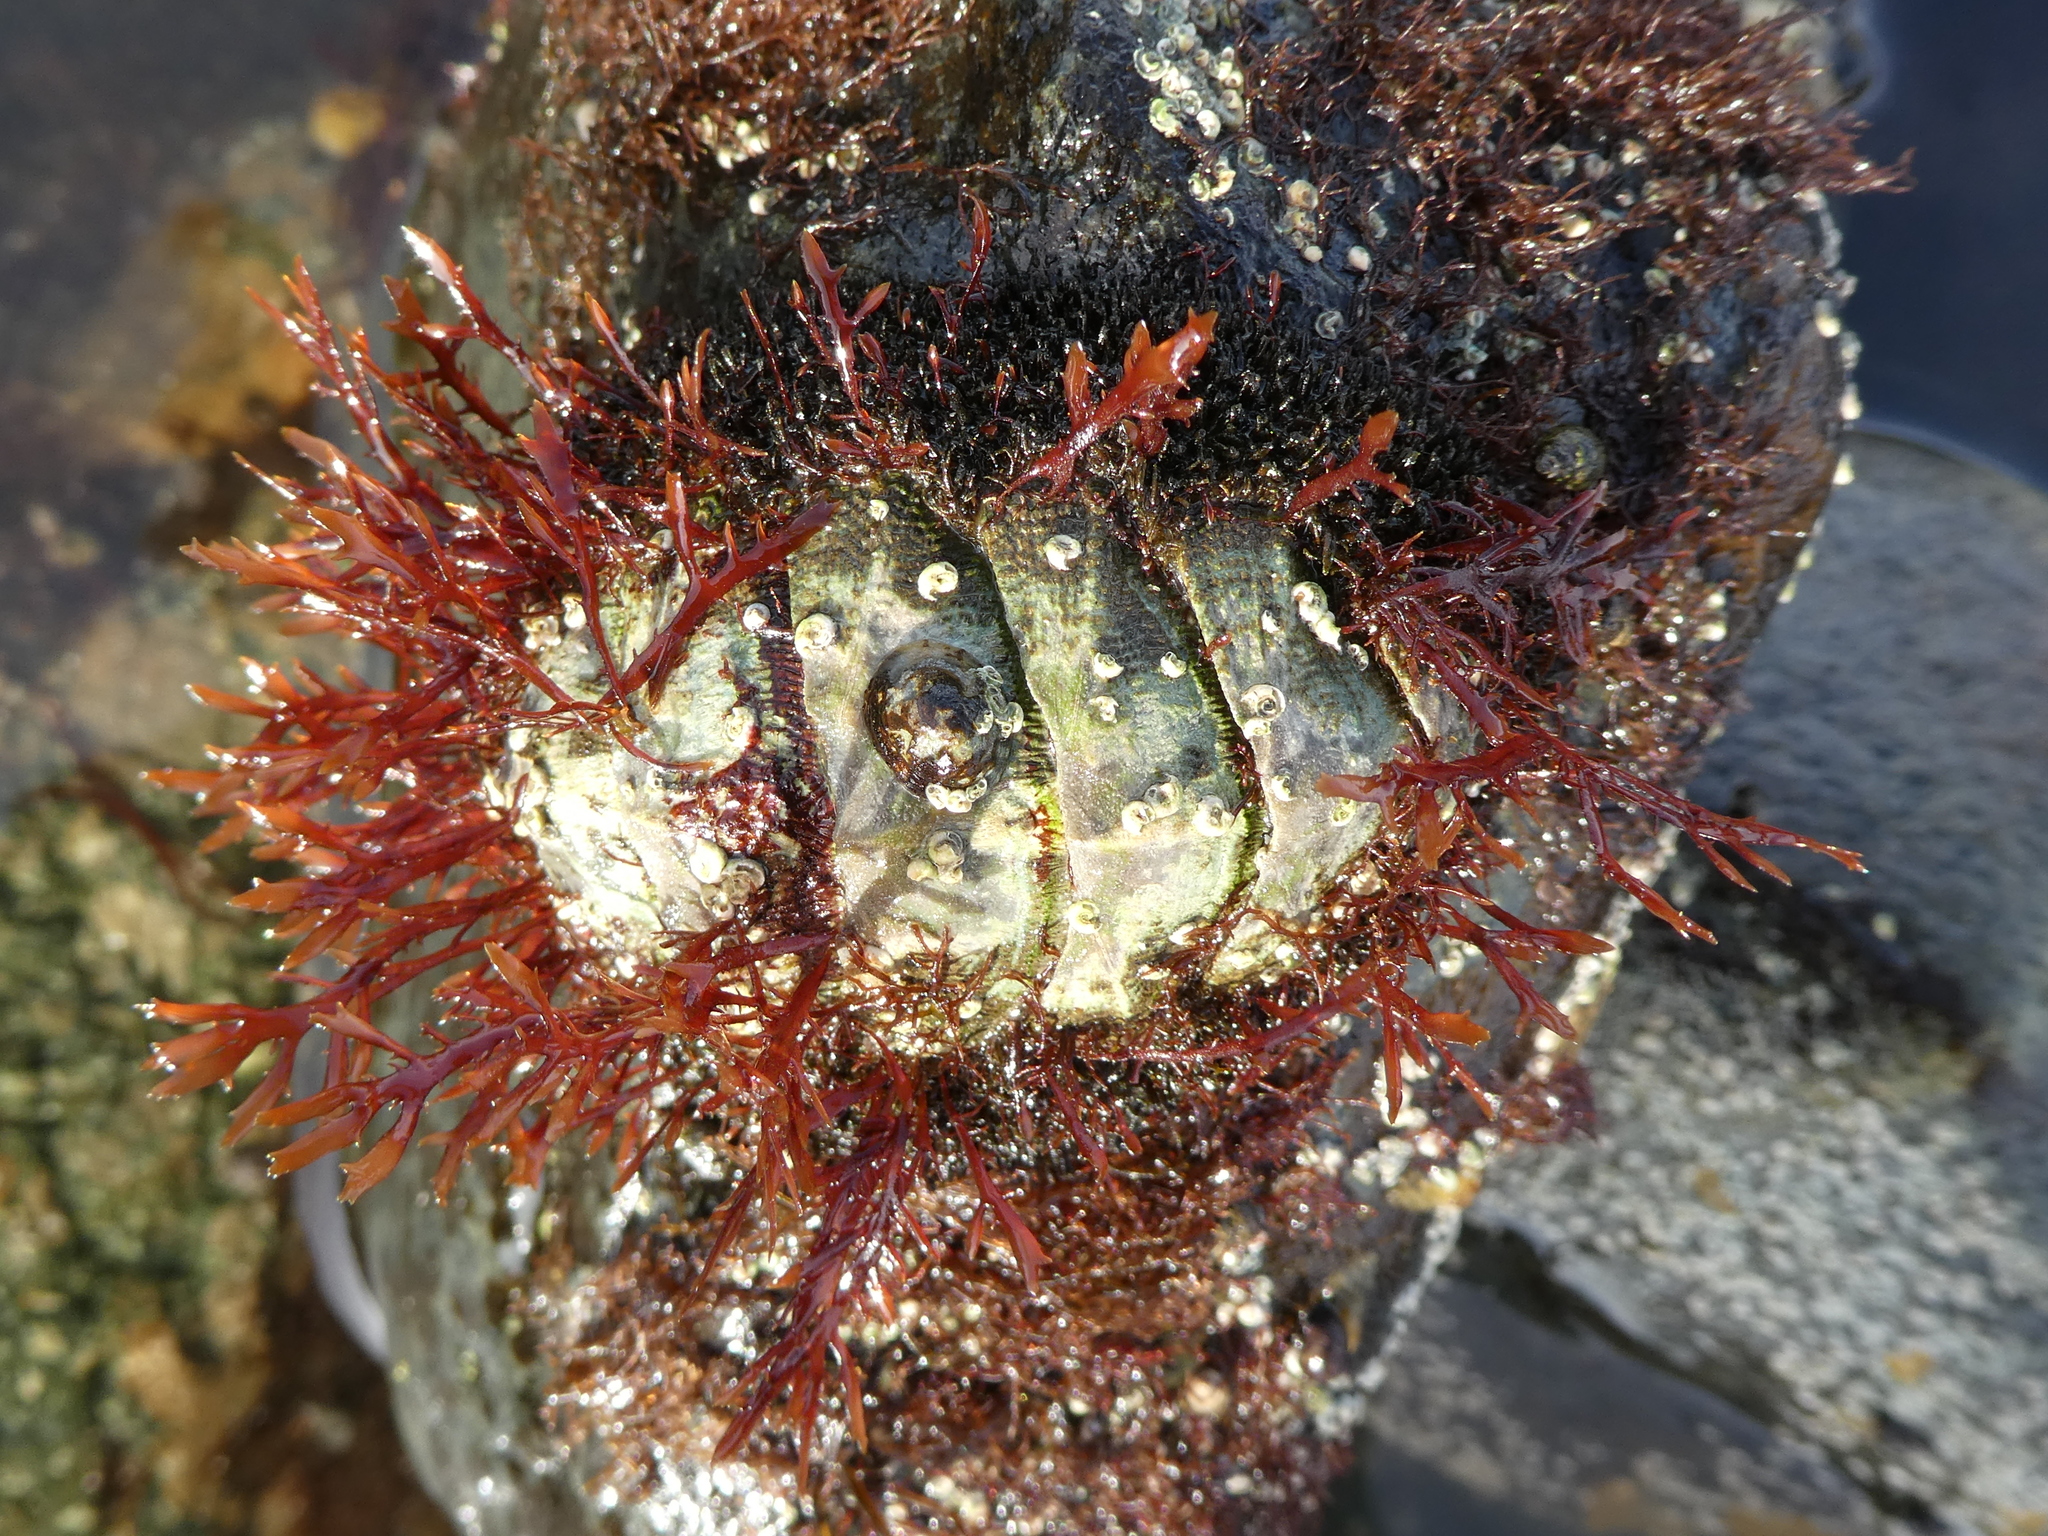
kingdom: Animalia
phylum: Mollusca
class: Polyplacophora
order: Chitonida
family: Mopaliidae
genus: Mopalia
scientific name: Mopalia muscosa
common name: Mossy chiton
